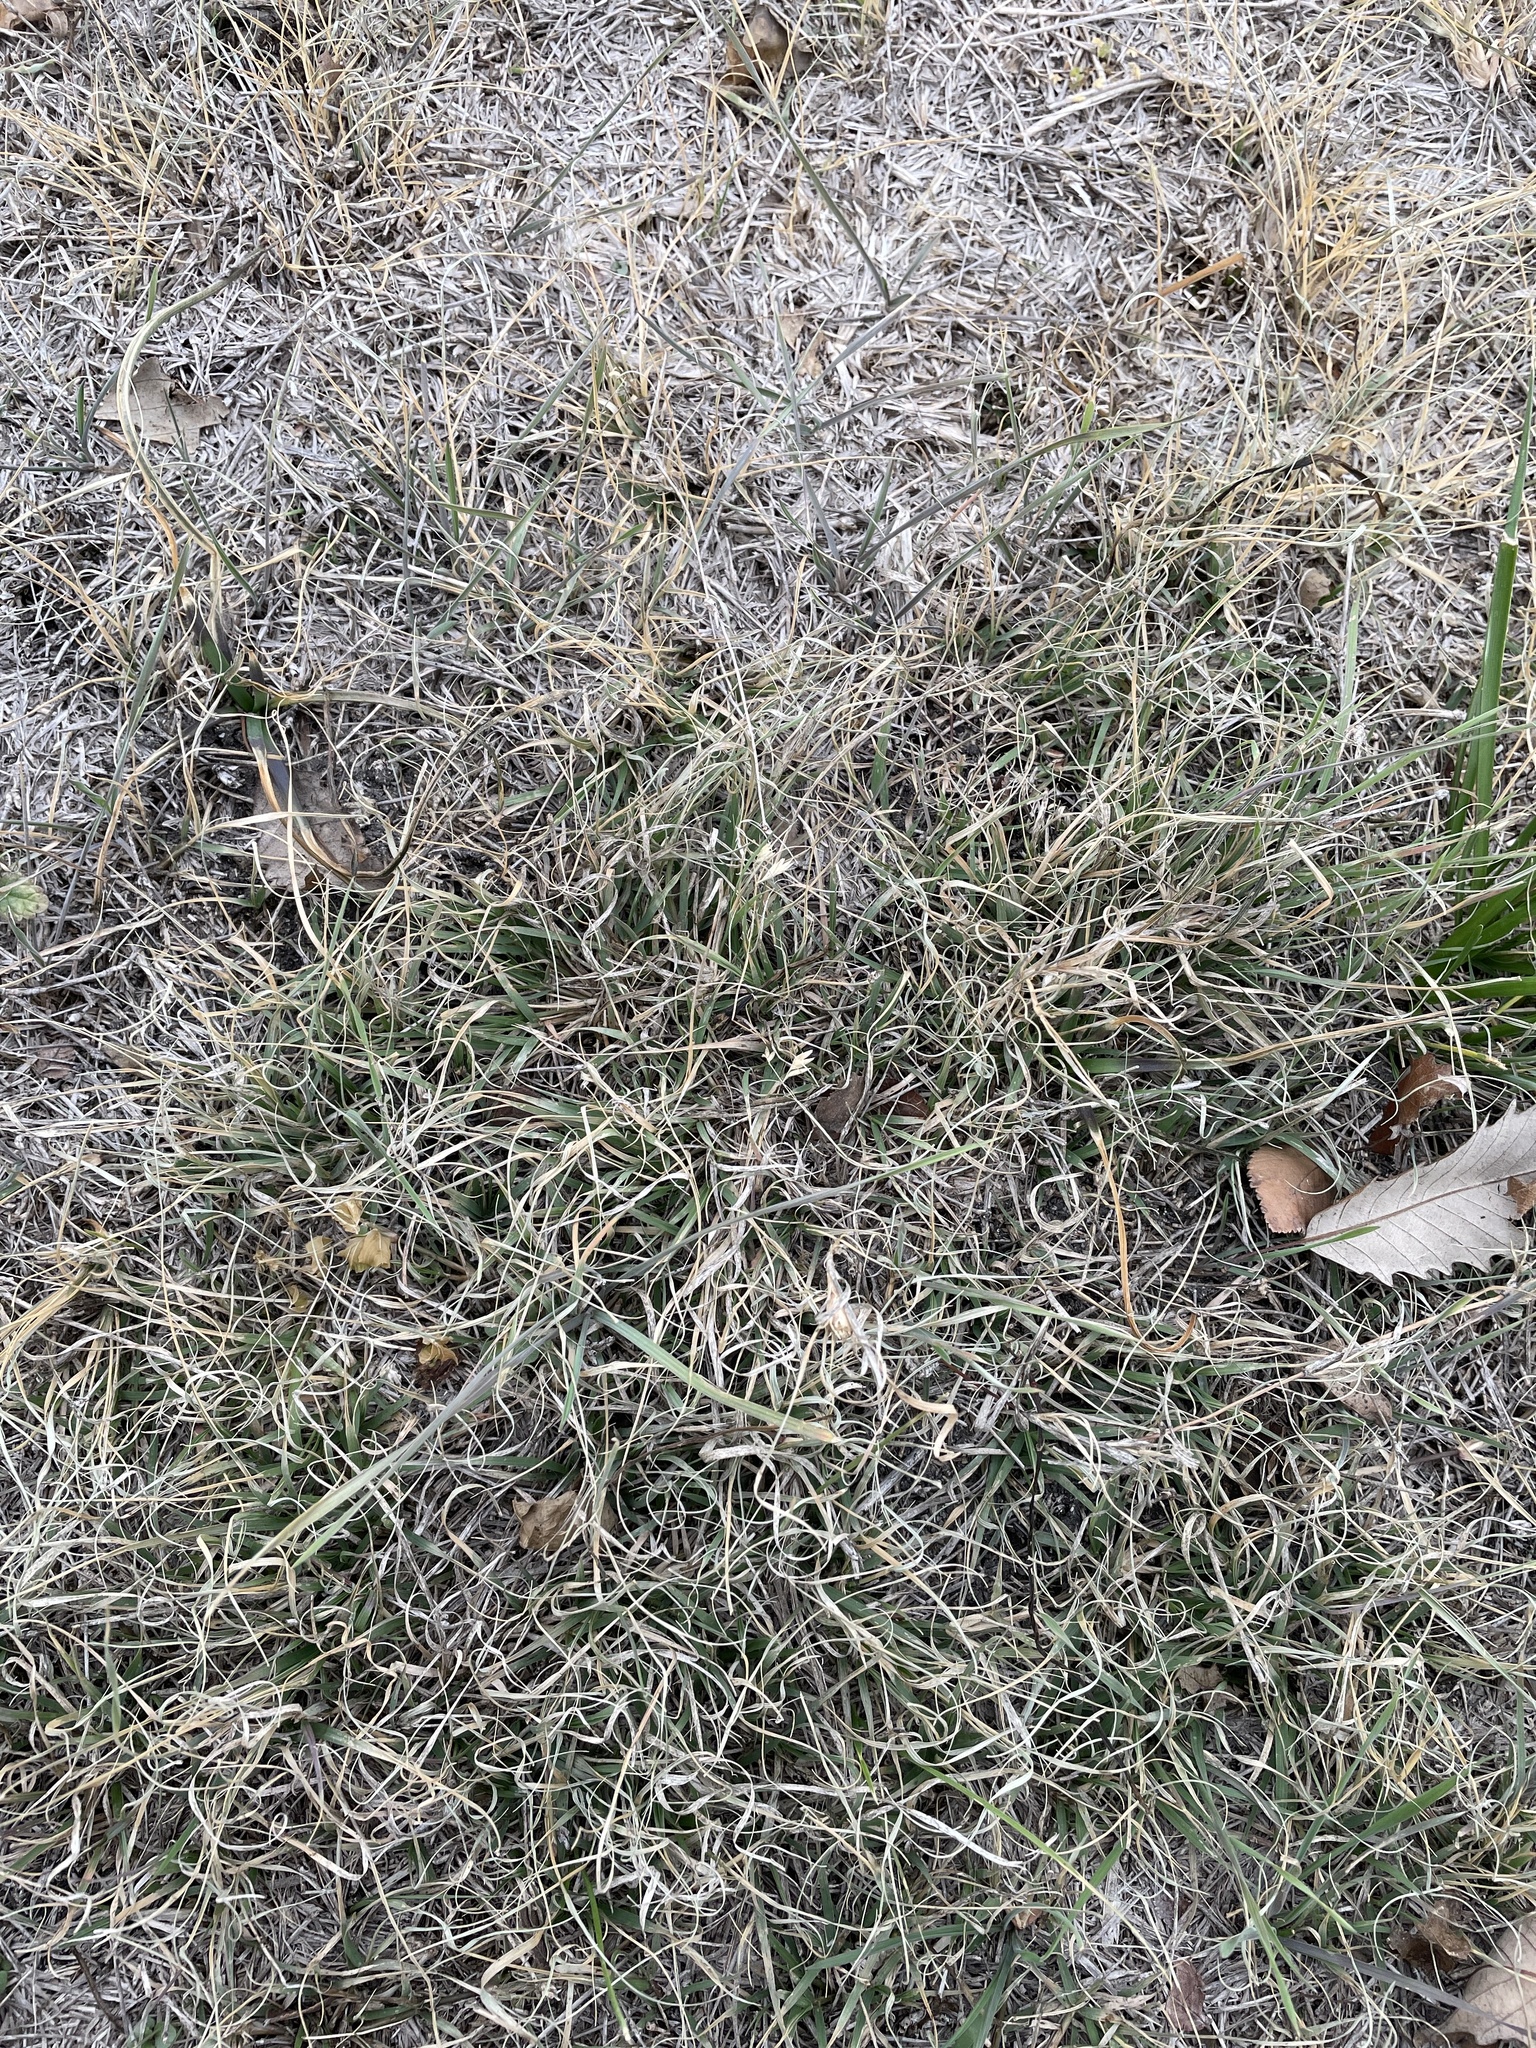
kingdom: Plantae
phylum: Tracheophyta
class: Liliopsida
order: Poales
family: Poaceae
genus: Bouteloua
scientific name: Bouteloua dactyloides
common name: Buffalo grass
